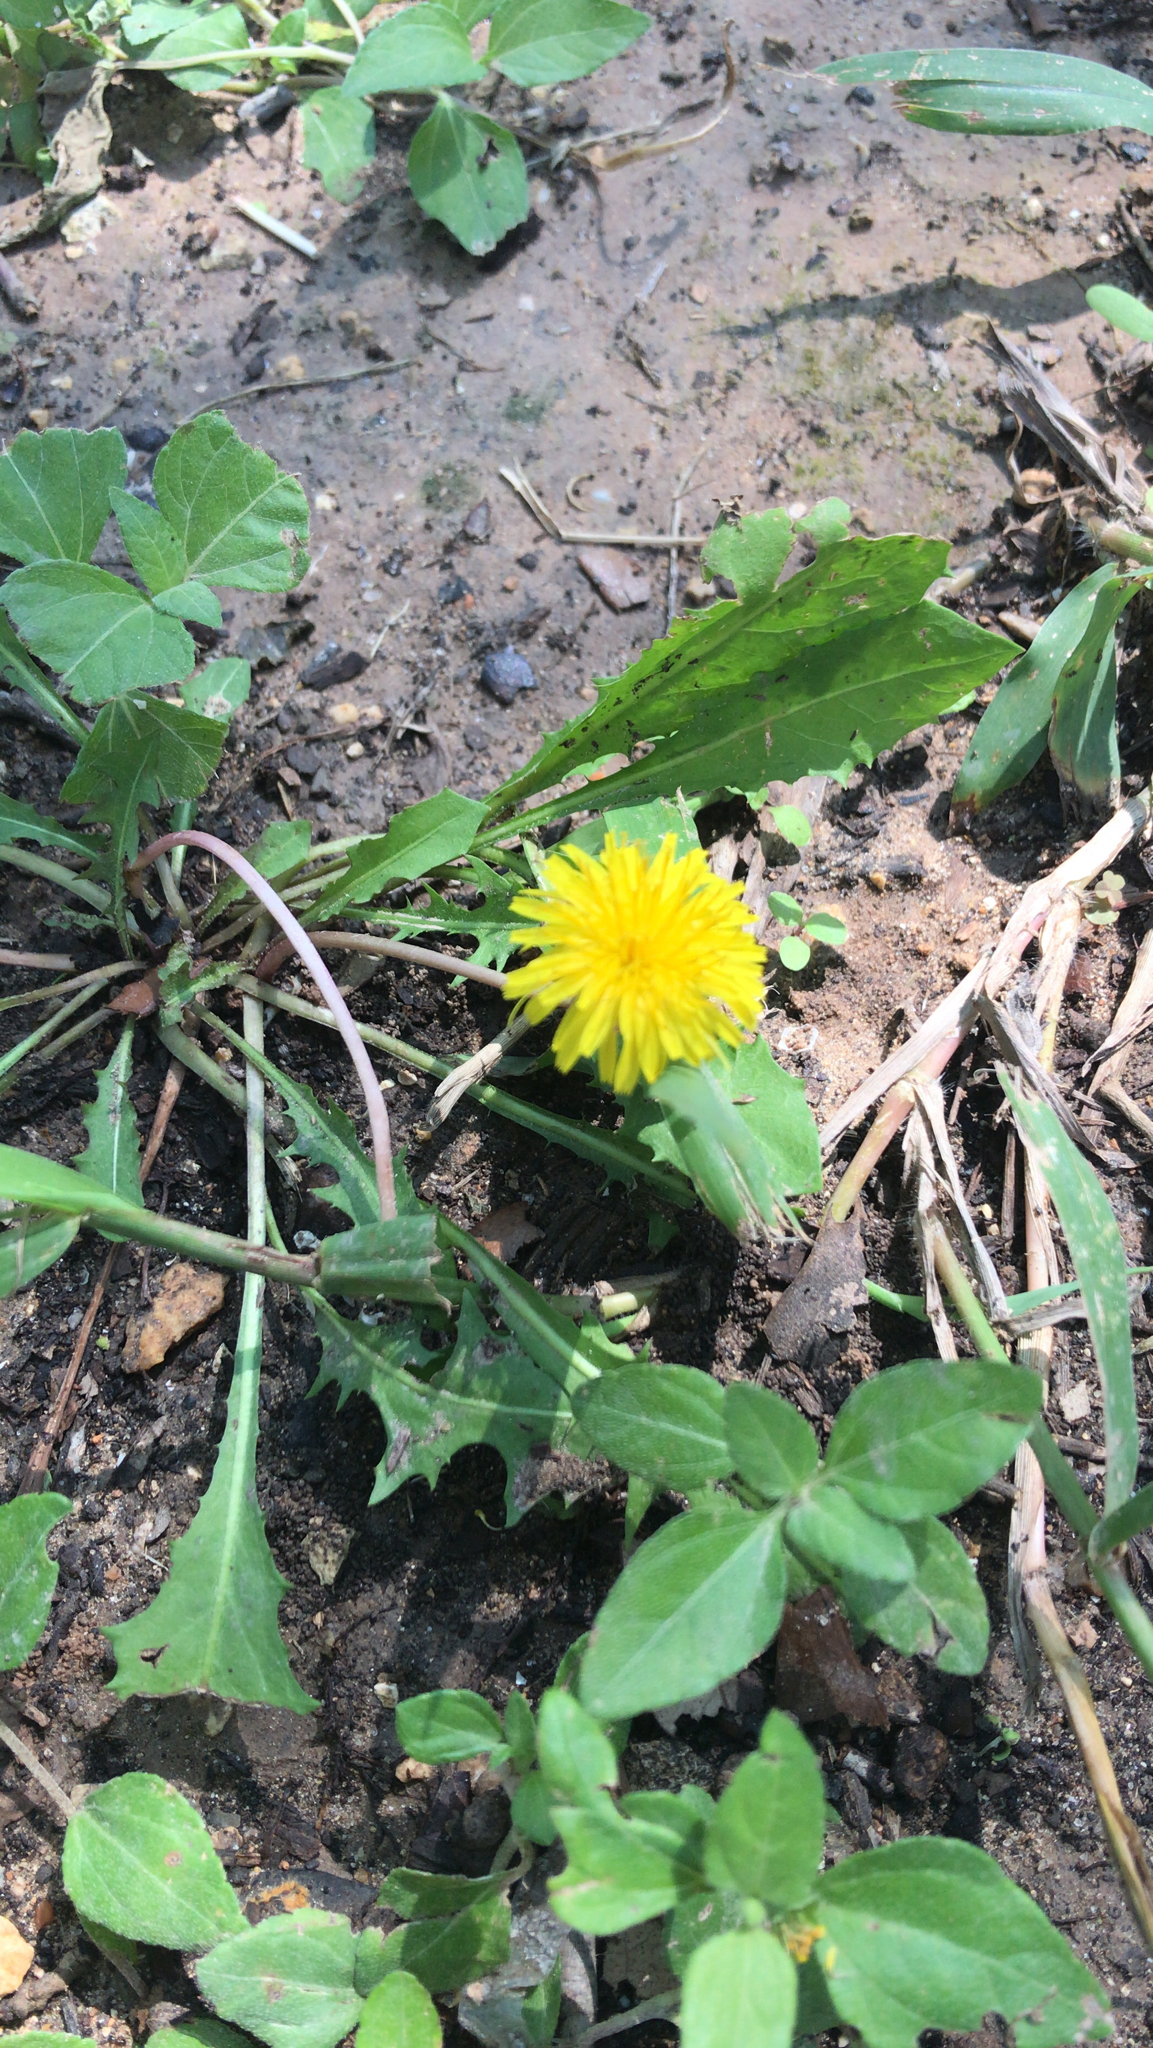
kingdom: Plantae
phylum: Tracheophyta
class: Magnoliopsida
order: Asterales
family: Asteraceae
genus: Taraxacum
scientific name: Taraxacum
